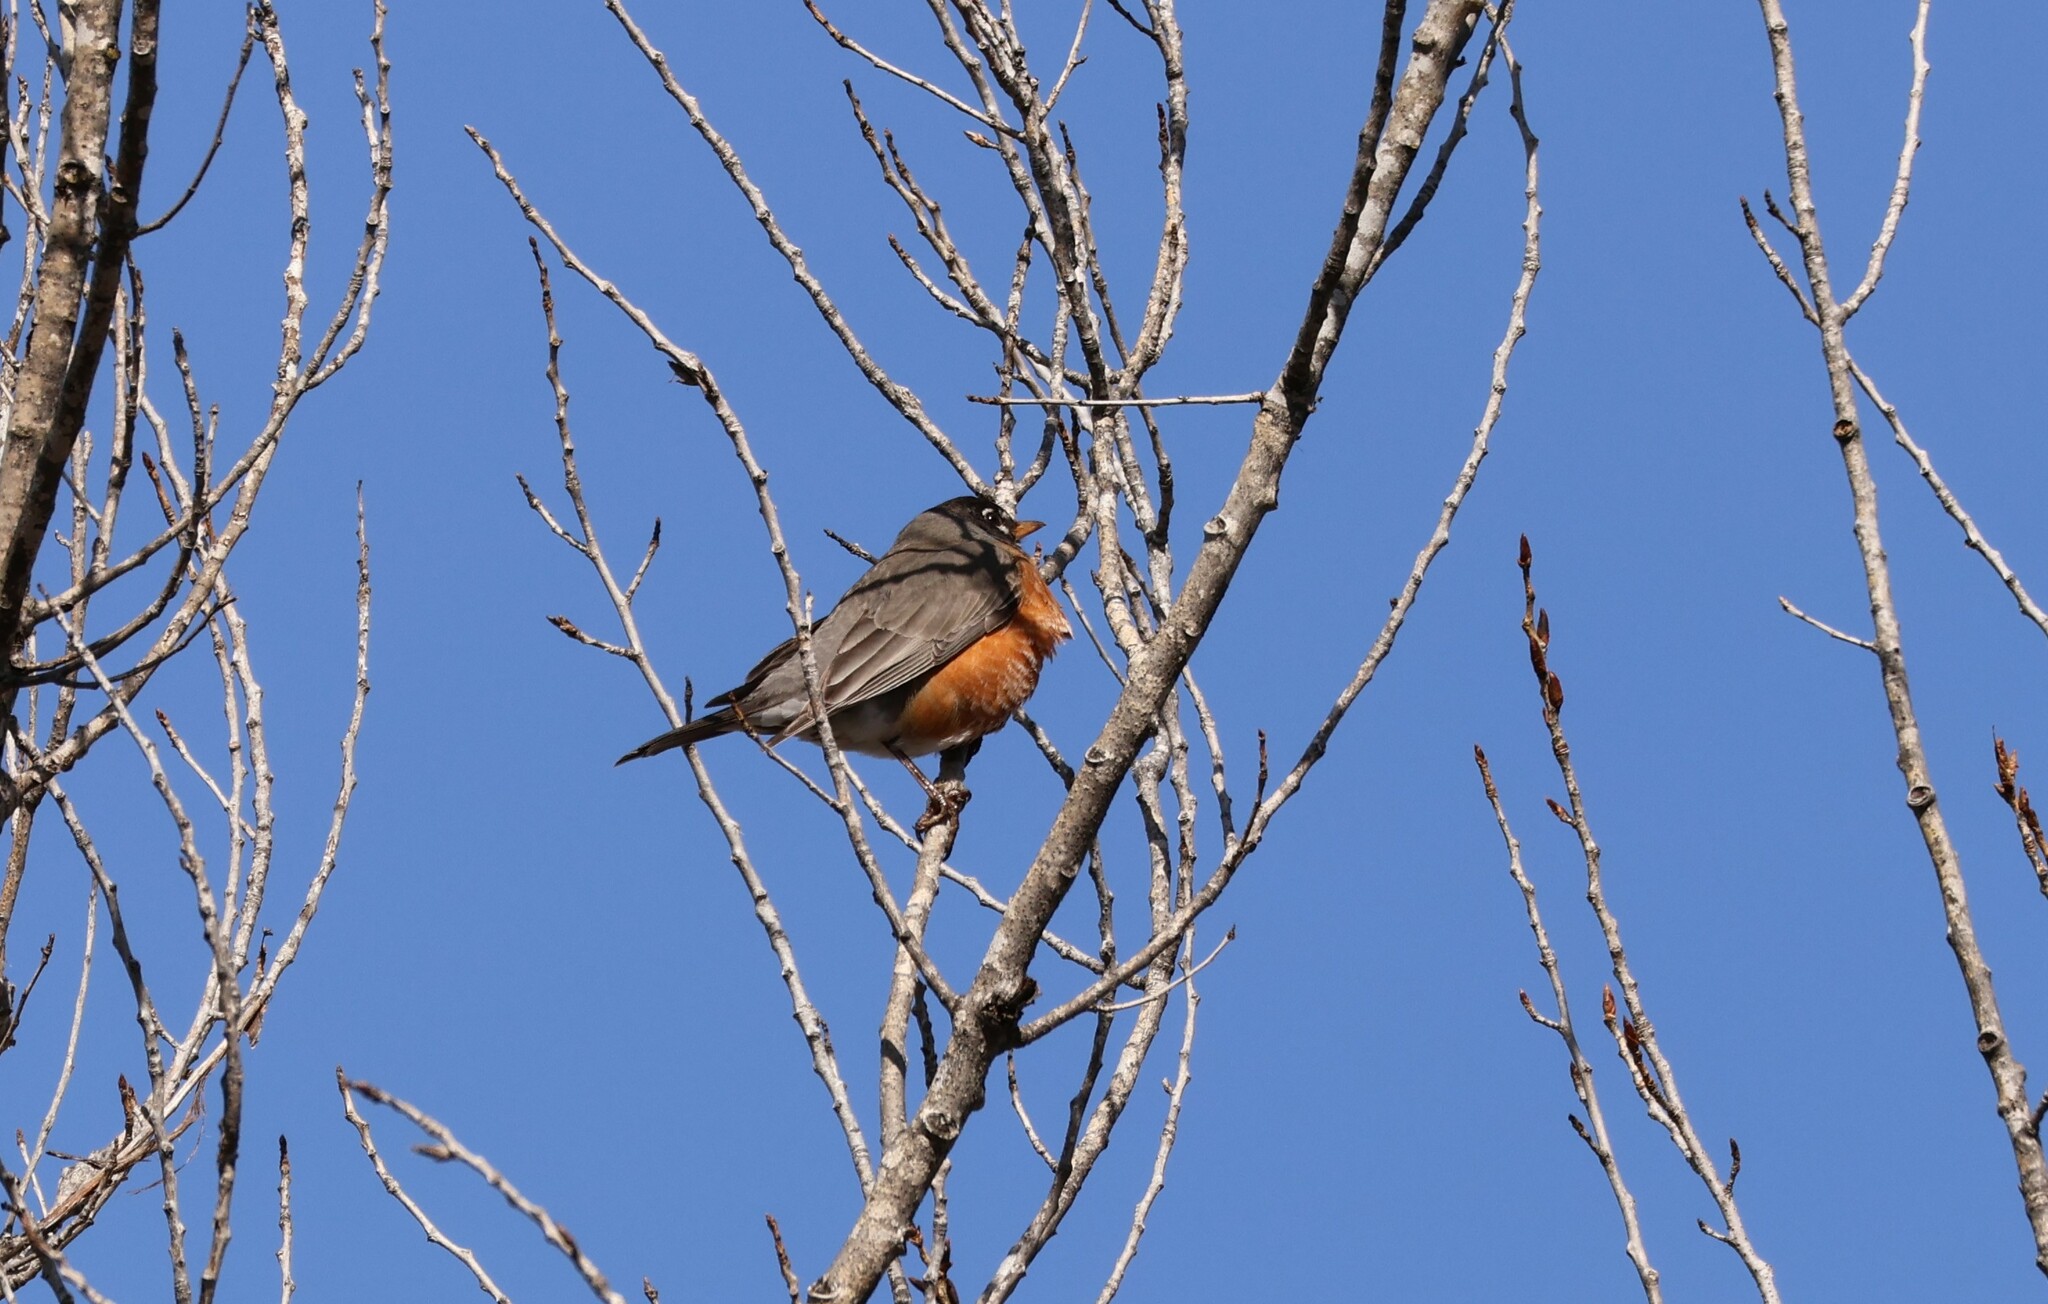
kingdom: Animalia
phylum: Chordata
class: Aves
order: Passeriformes
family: Turdidae
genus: Turdus
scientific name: Turdus migratorius
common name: American robin
